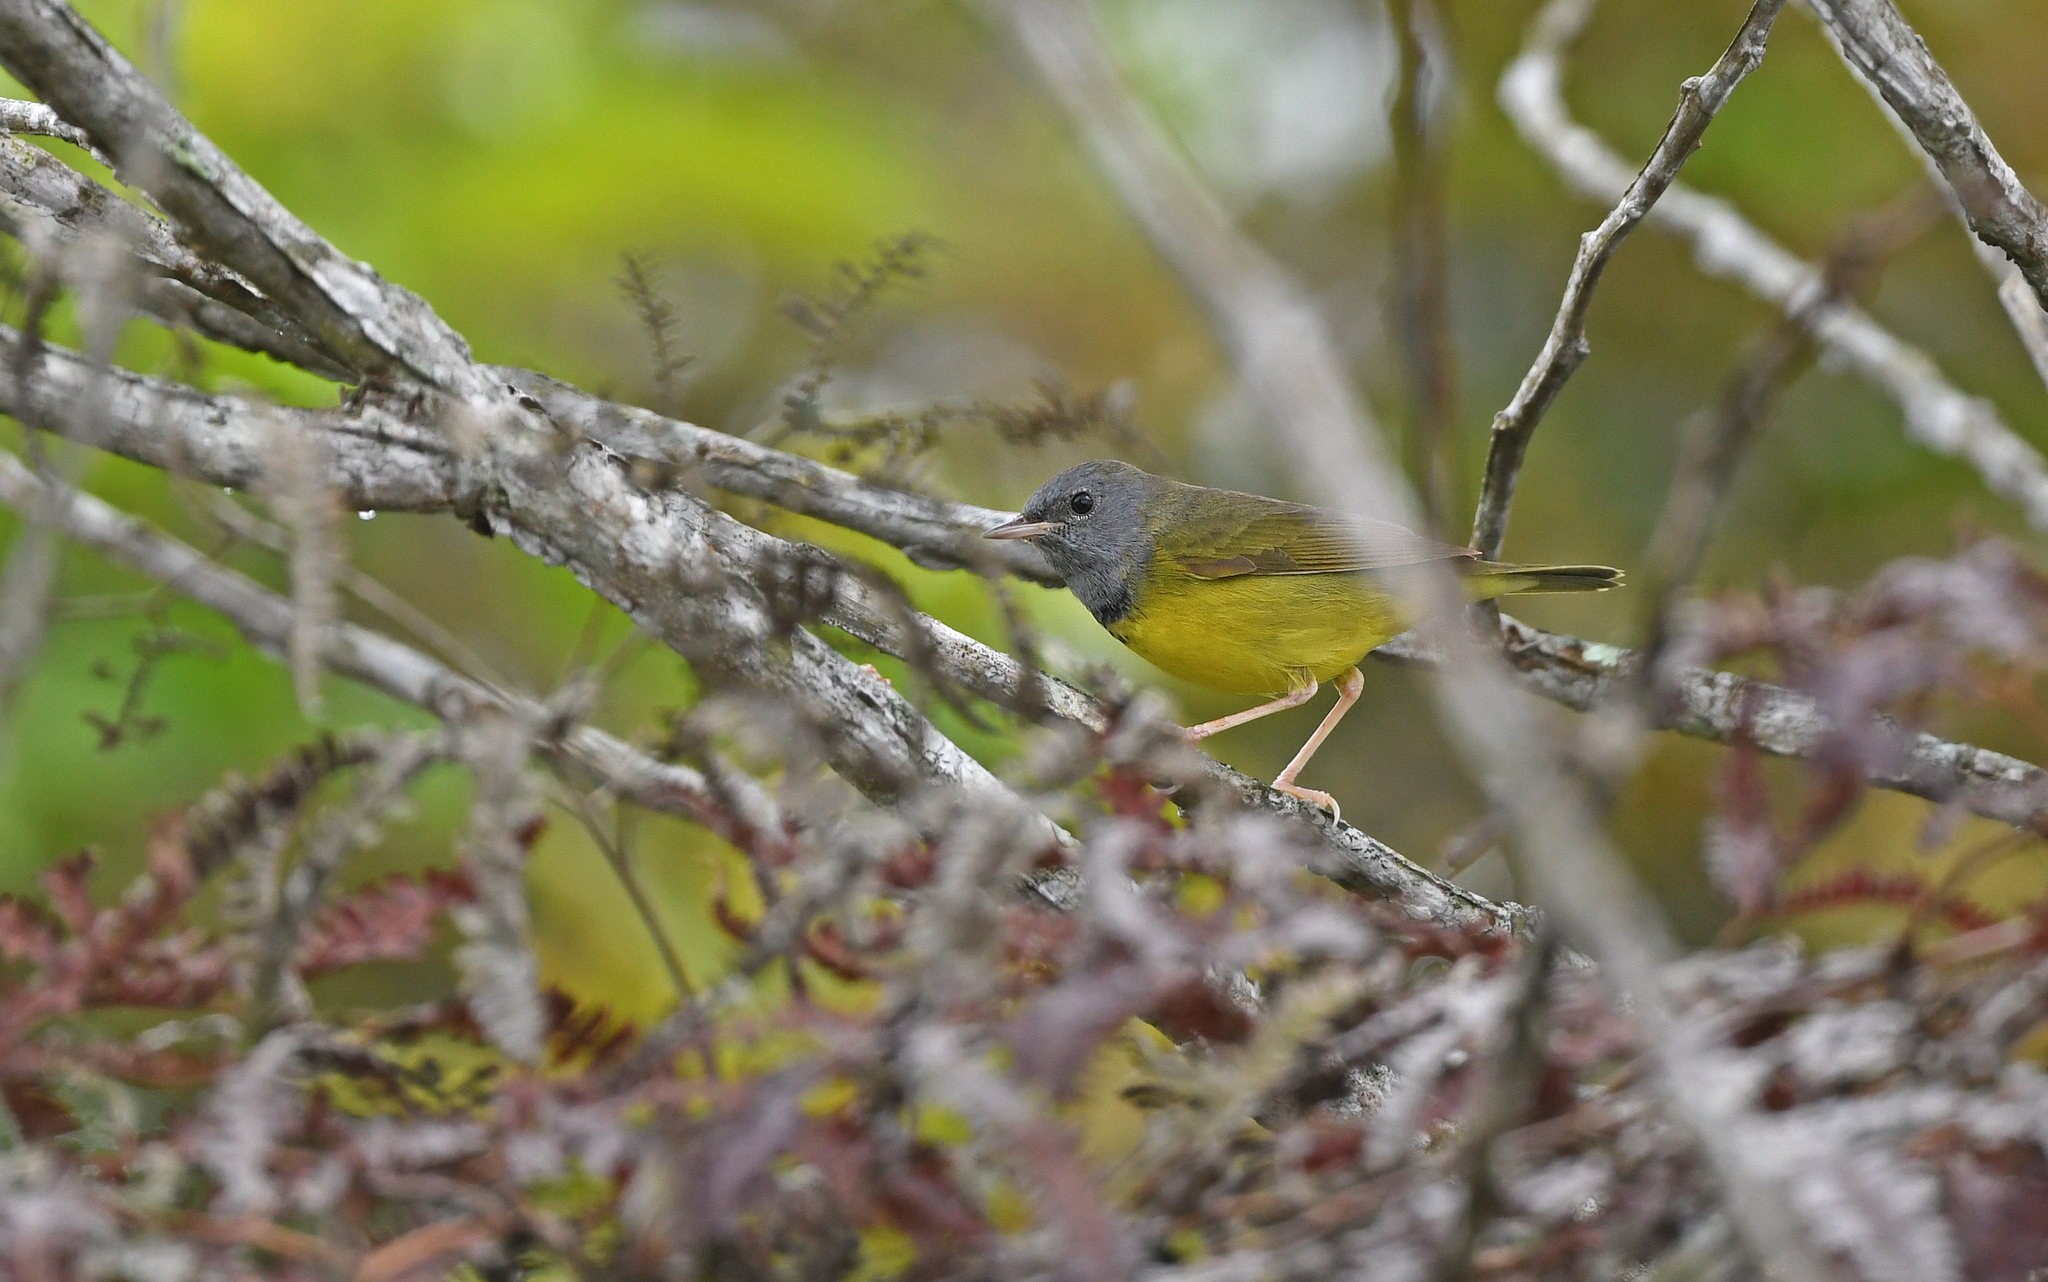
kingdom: Animalia
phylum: Chordata
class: Aves
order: Passeriformes
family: Parulidae
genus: Geothlypis
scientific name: Geothlypis philadelphia
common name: Mourning warbler
